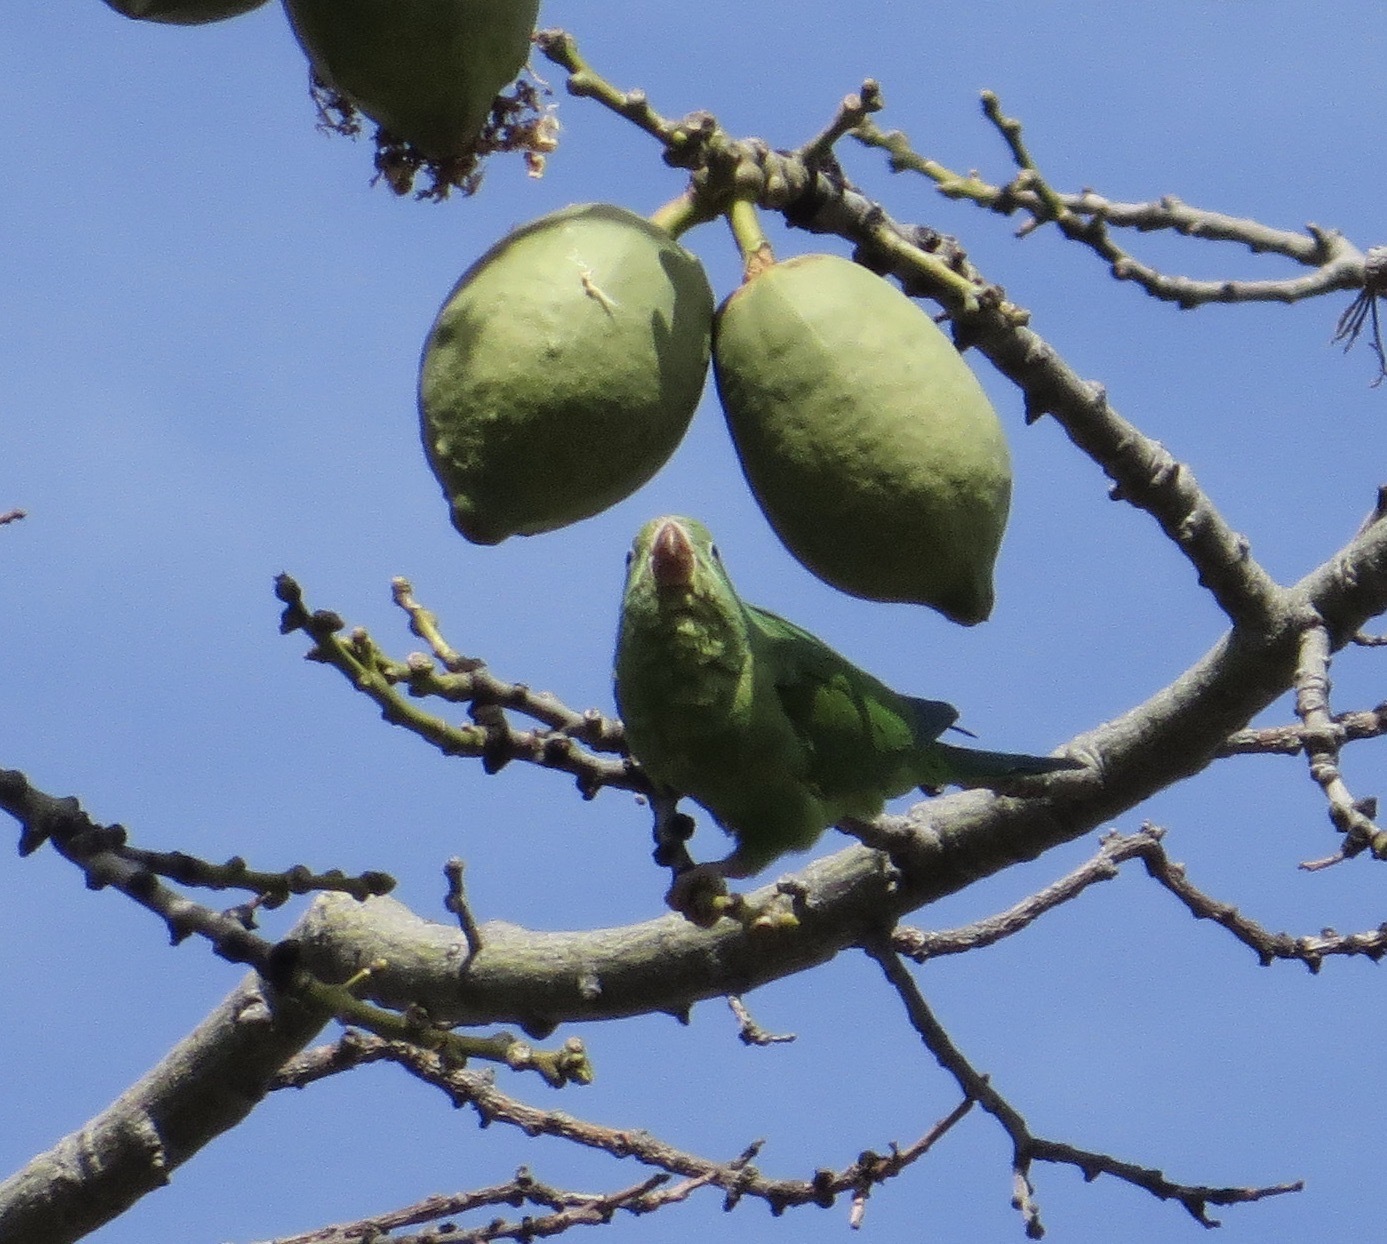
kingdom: Animalia
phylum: Chordata
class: Aves
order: Psittaciformes
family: Psittacidae
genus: Brotogeris
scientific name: Brotogeris chiriri
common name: Yellow-chevroned parakeet
